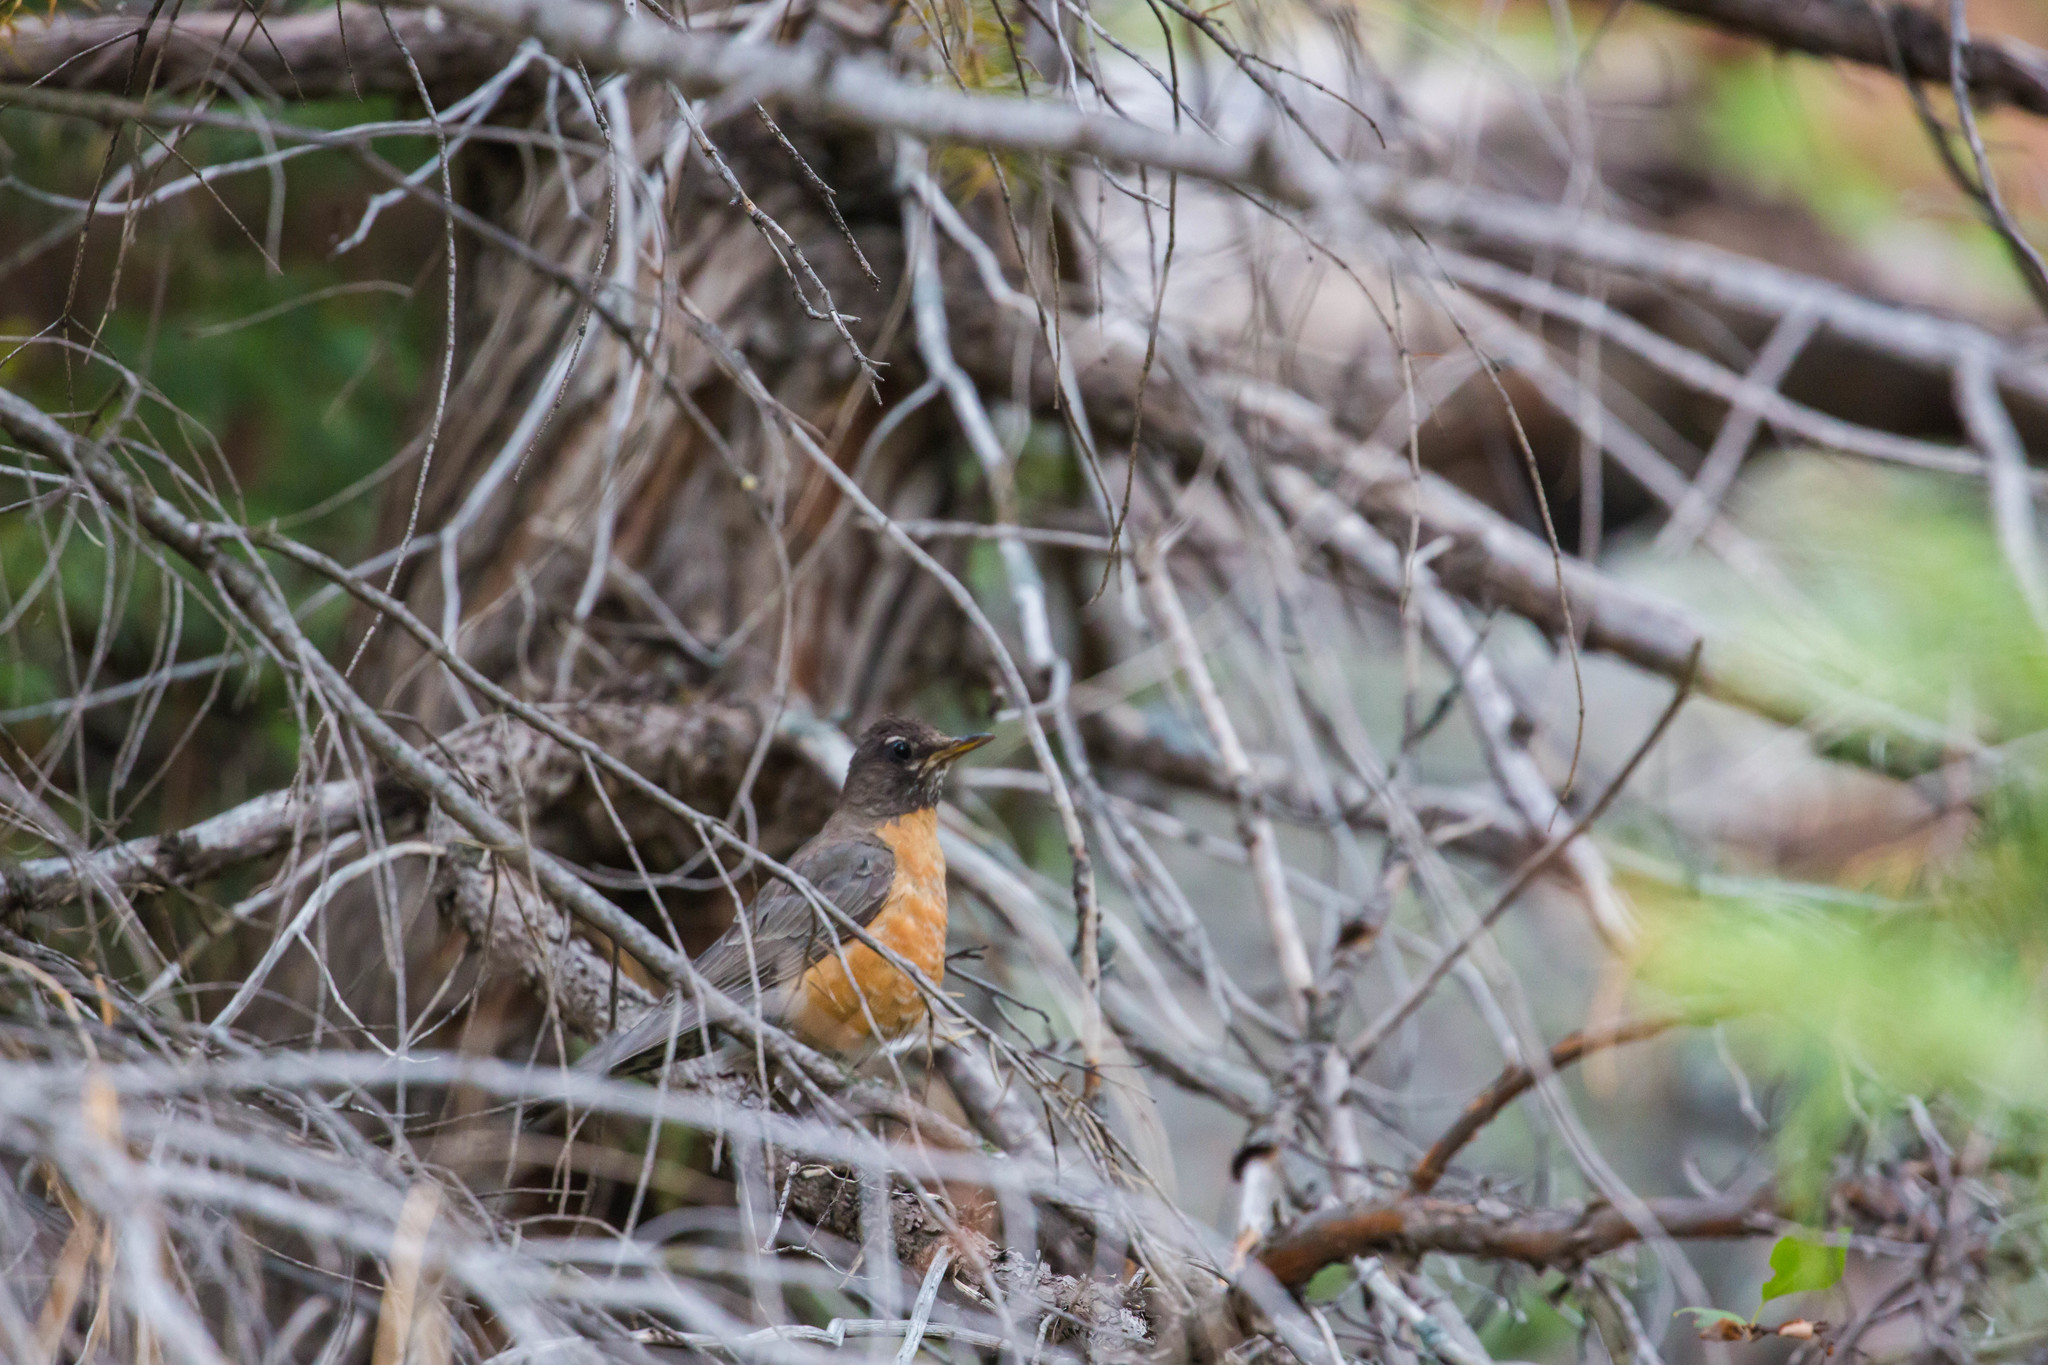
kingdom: Animalia
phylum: Chordata
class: Aves
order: Passeriformes
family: Turdidae
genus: Turdus
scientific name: Turdus migratorius
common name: American robin
